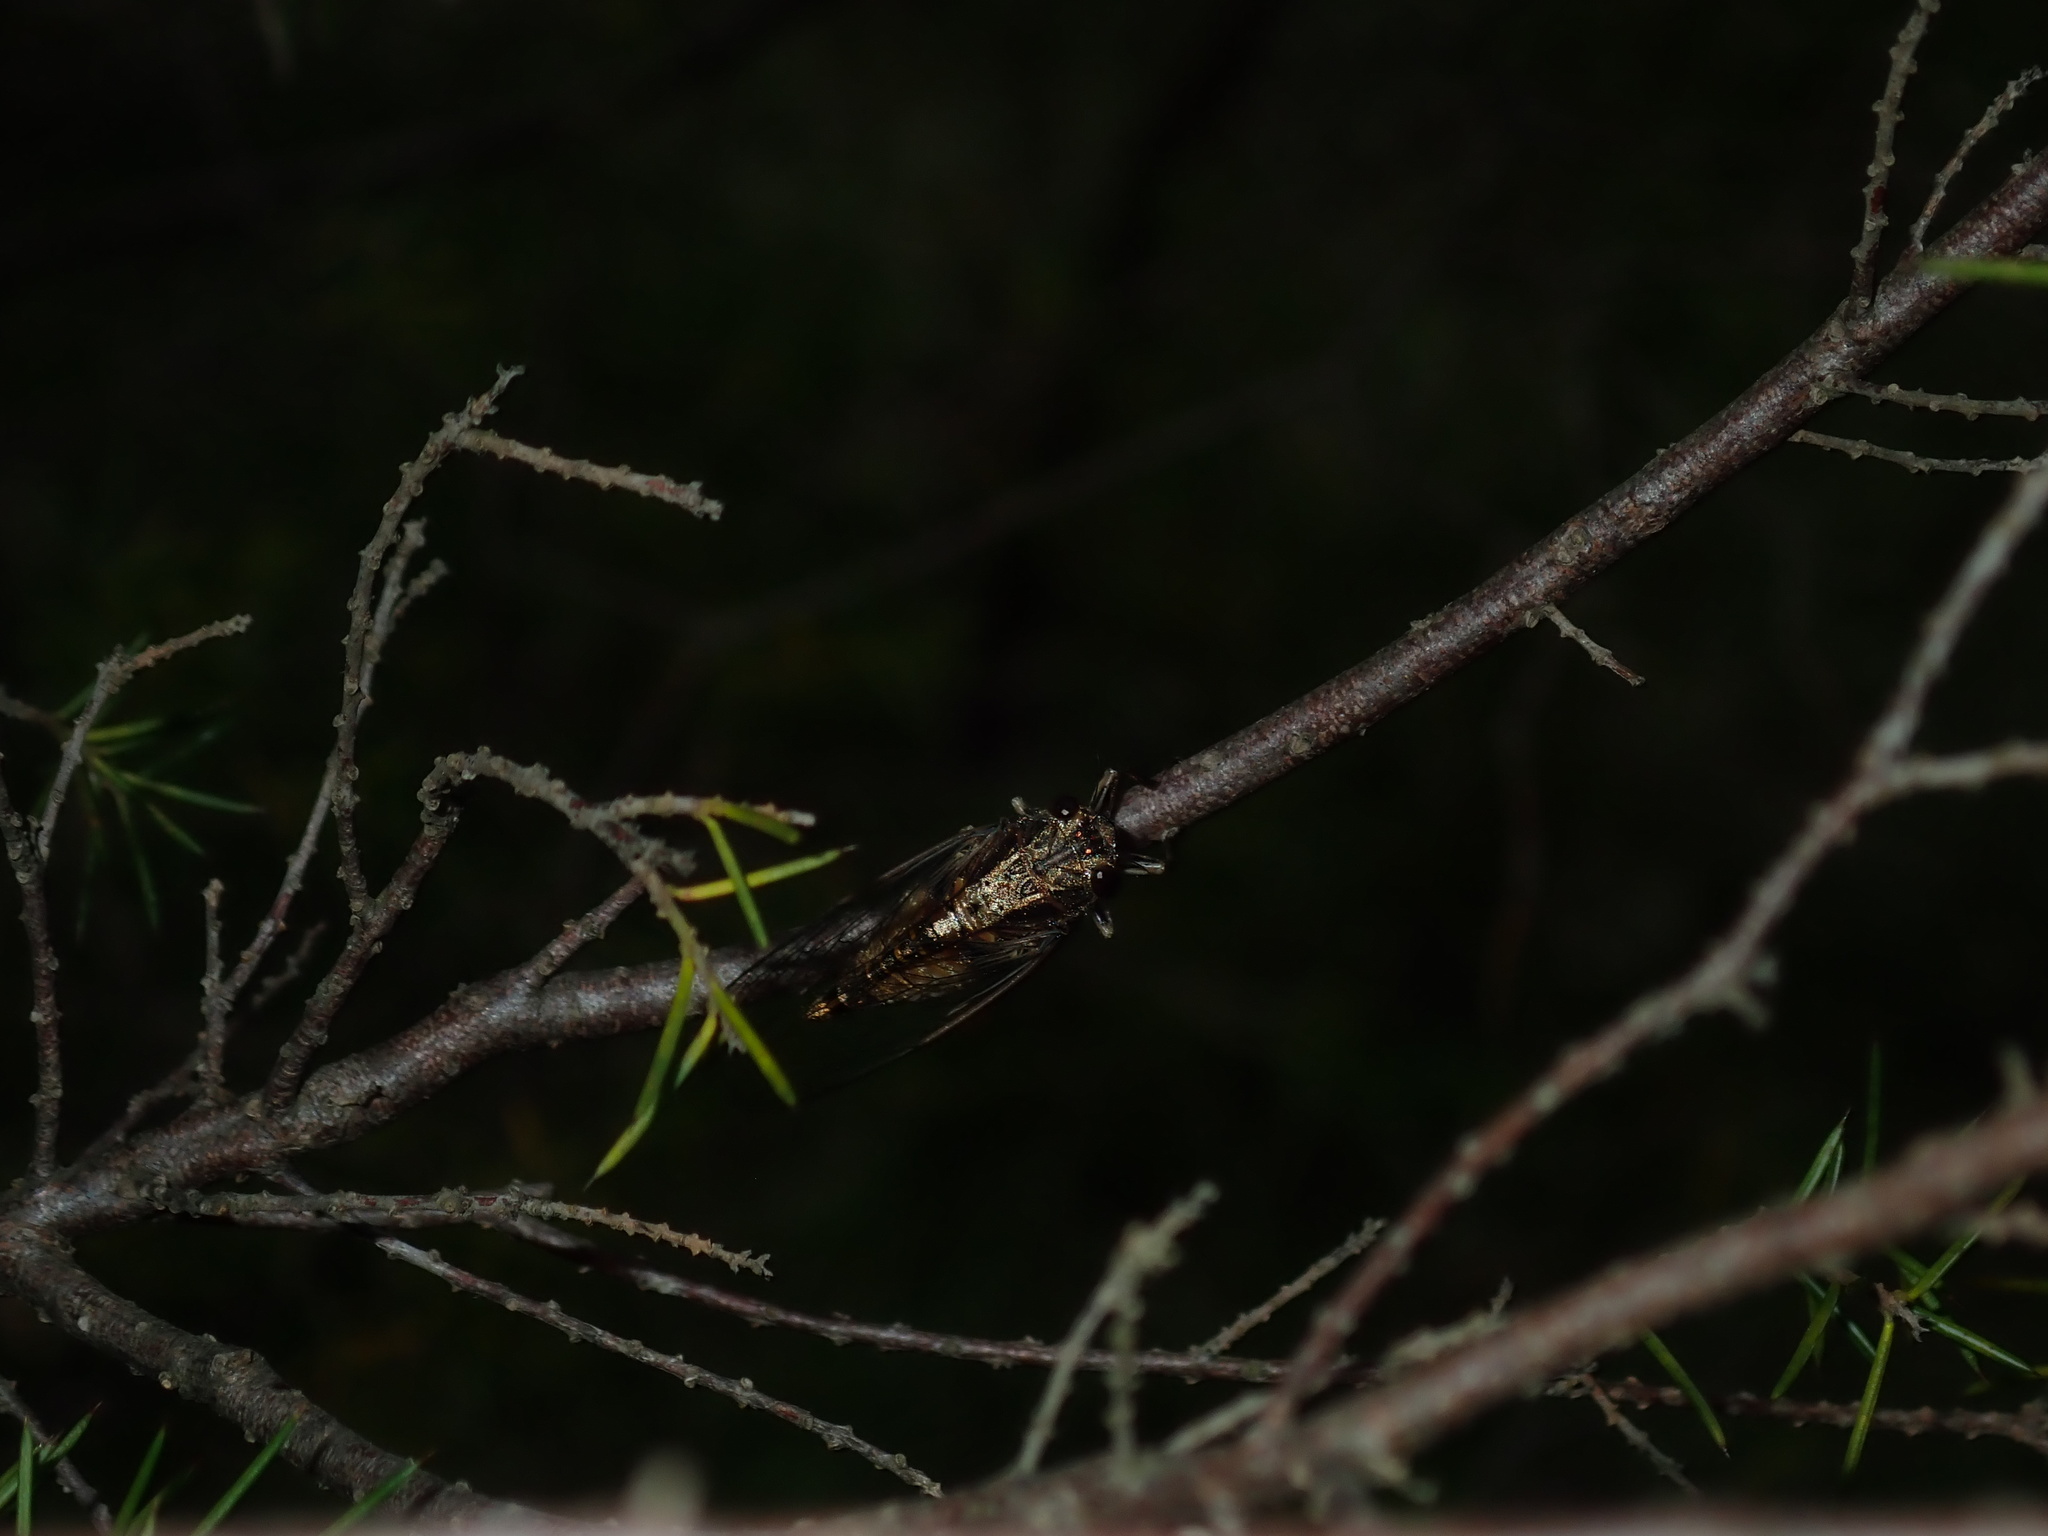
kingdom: Animalia
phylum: Arthropoda
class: Insecta
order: Hemiptera
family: Cicadidae
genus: Yoyetta
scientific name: Yoyetta celis
